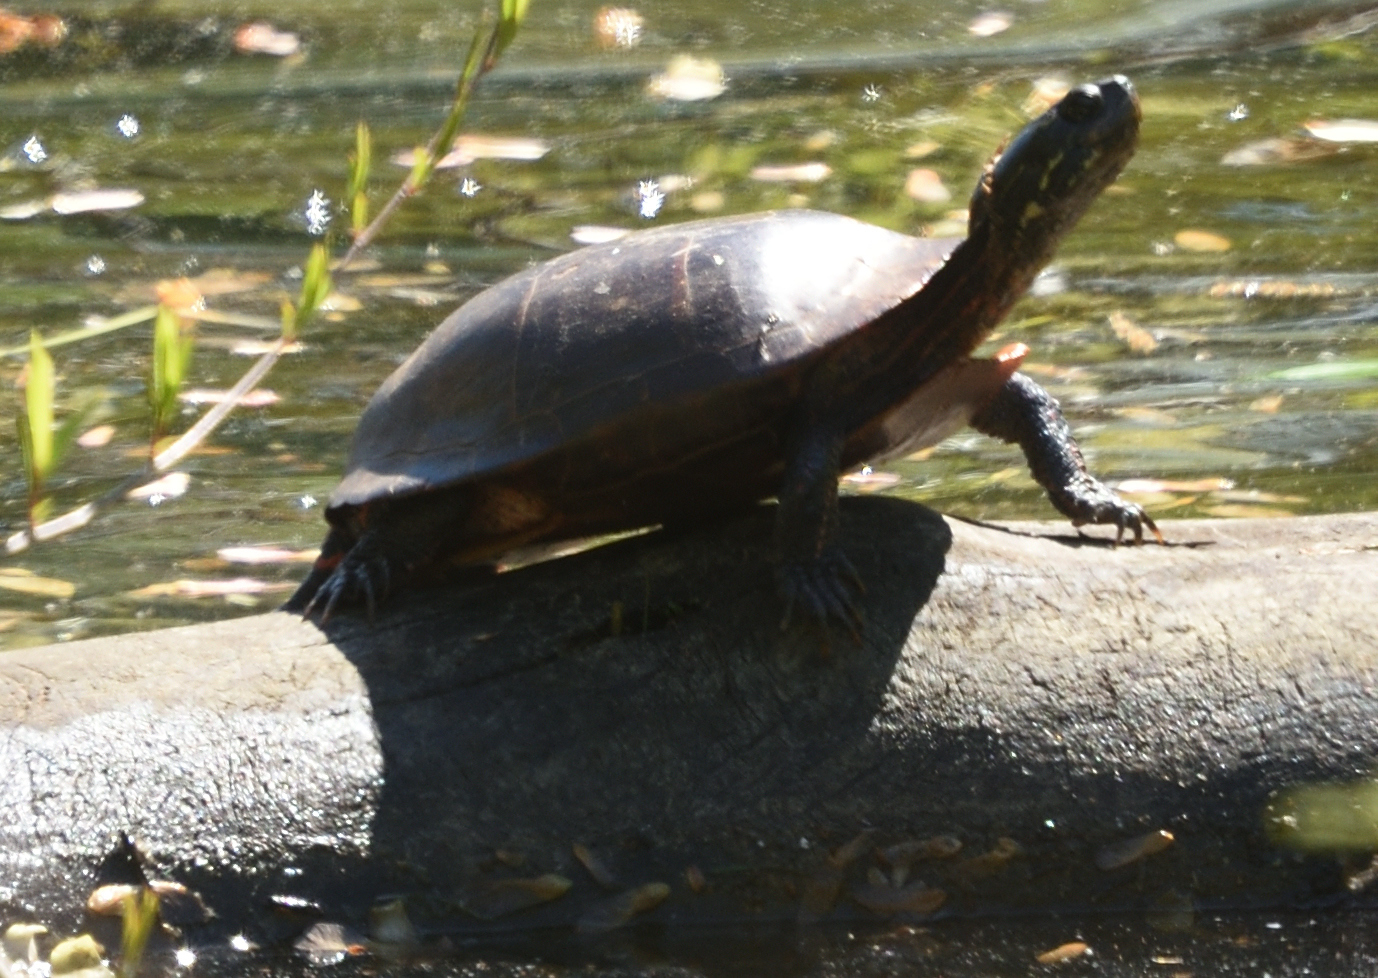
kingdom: Animalia
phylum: Chordata
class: Testudines
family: Emydidae
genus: Chrysemys
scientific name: Chrysemys picta
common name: Painted turtle
